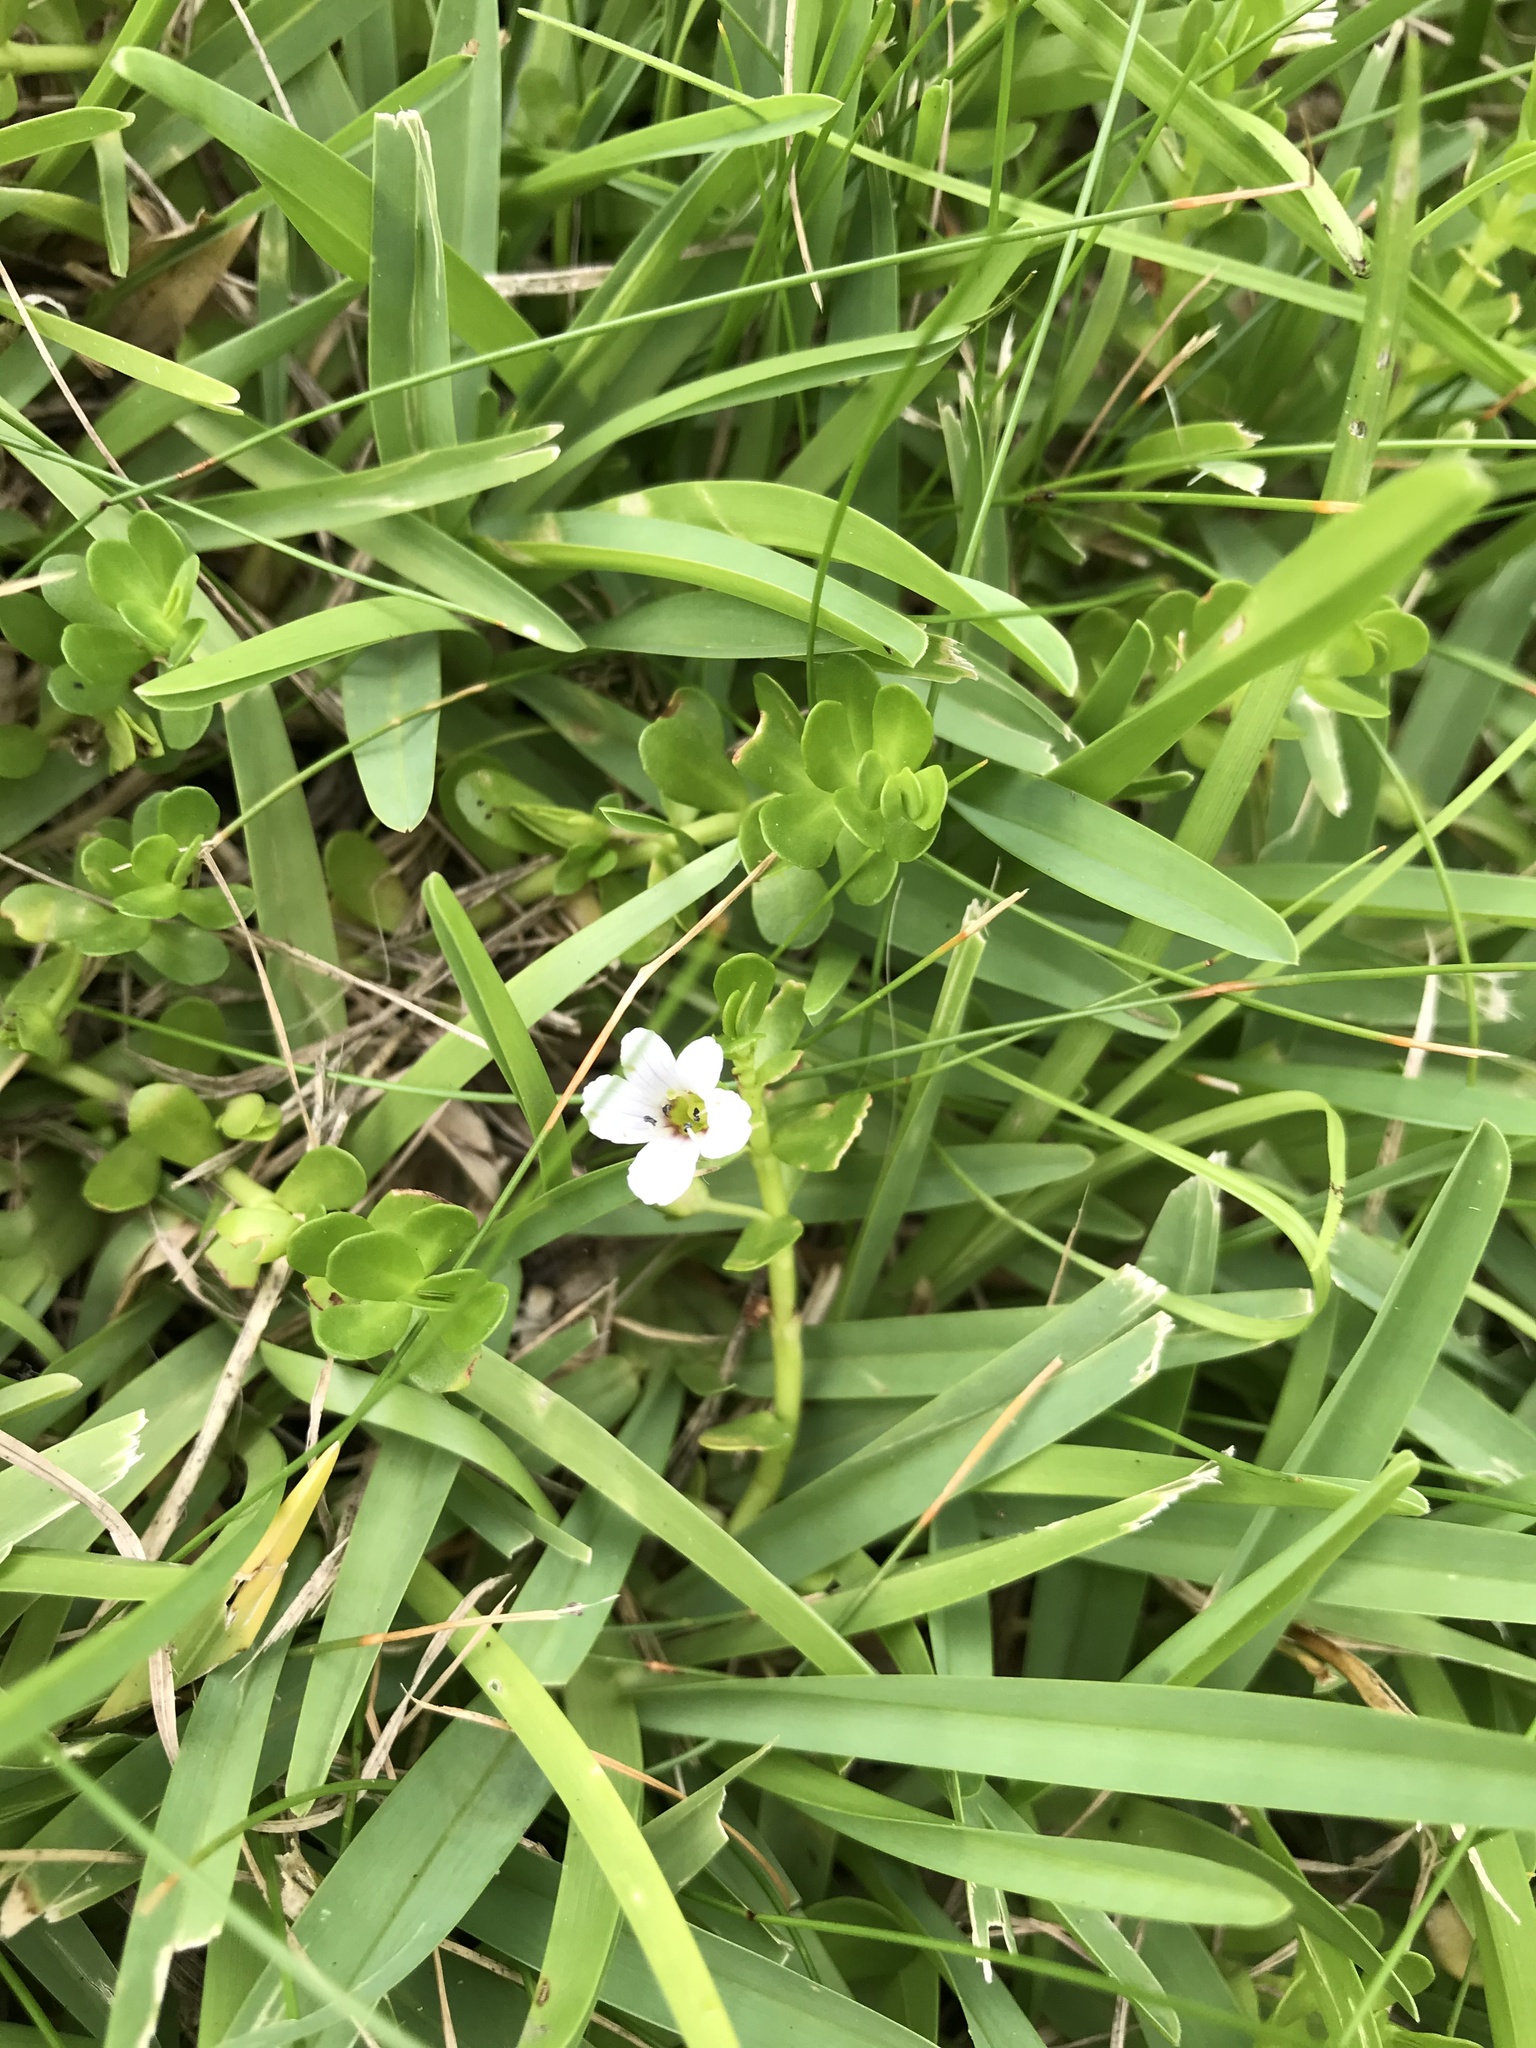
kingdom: Plantae
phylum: Tracheophyta
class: Magnoliopsida
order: Lamiales
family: Plantaginaceae
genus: Bacopa
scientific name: Bacopa monnieri
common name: Indian-pennywort
